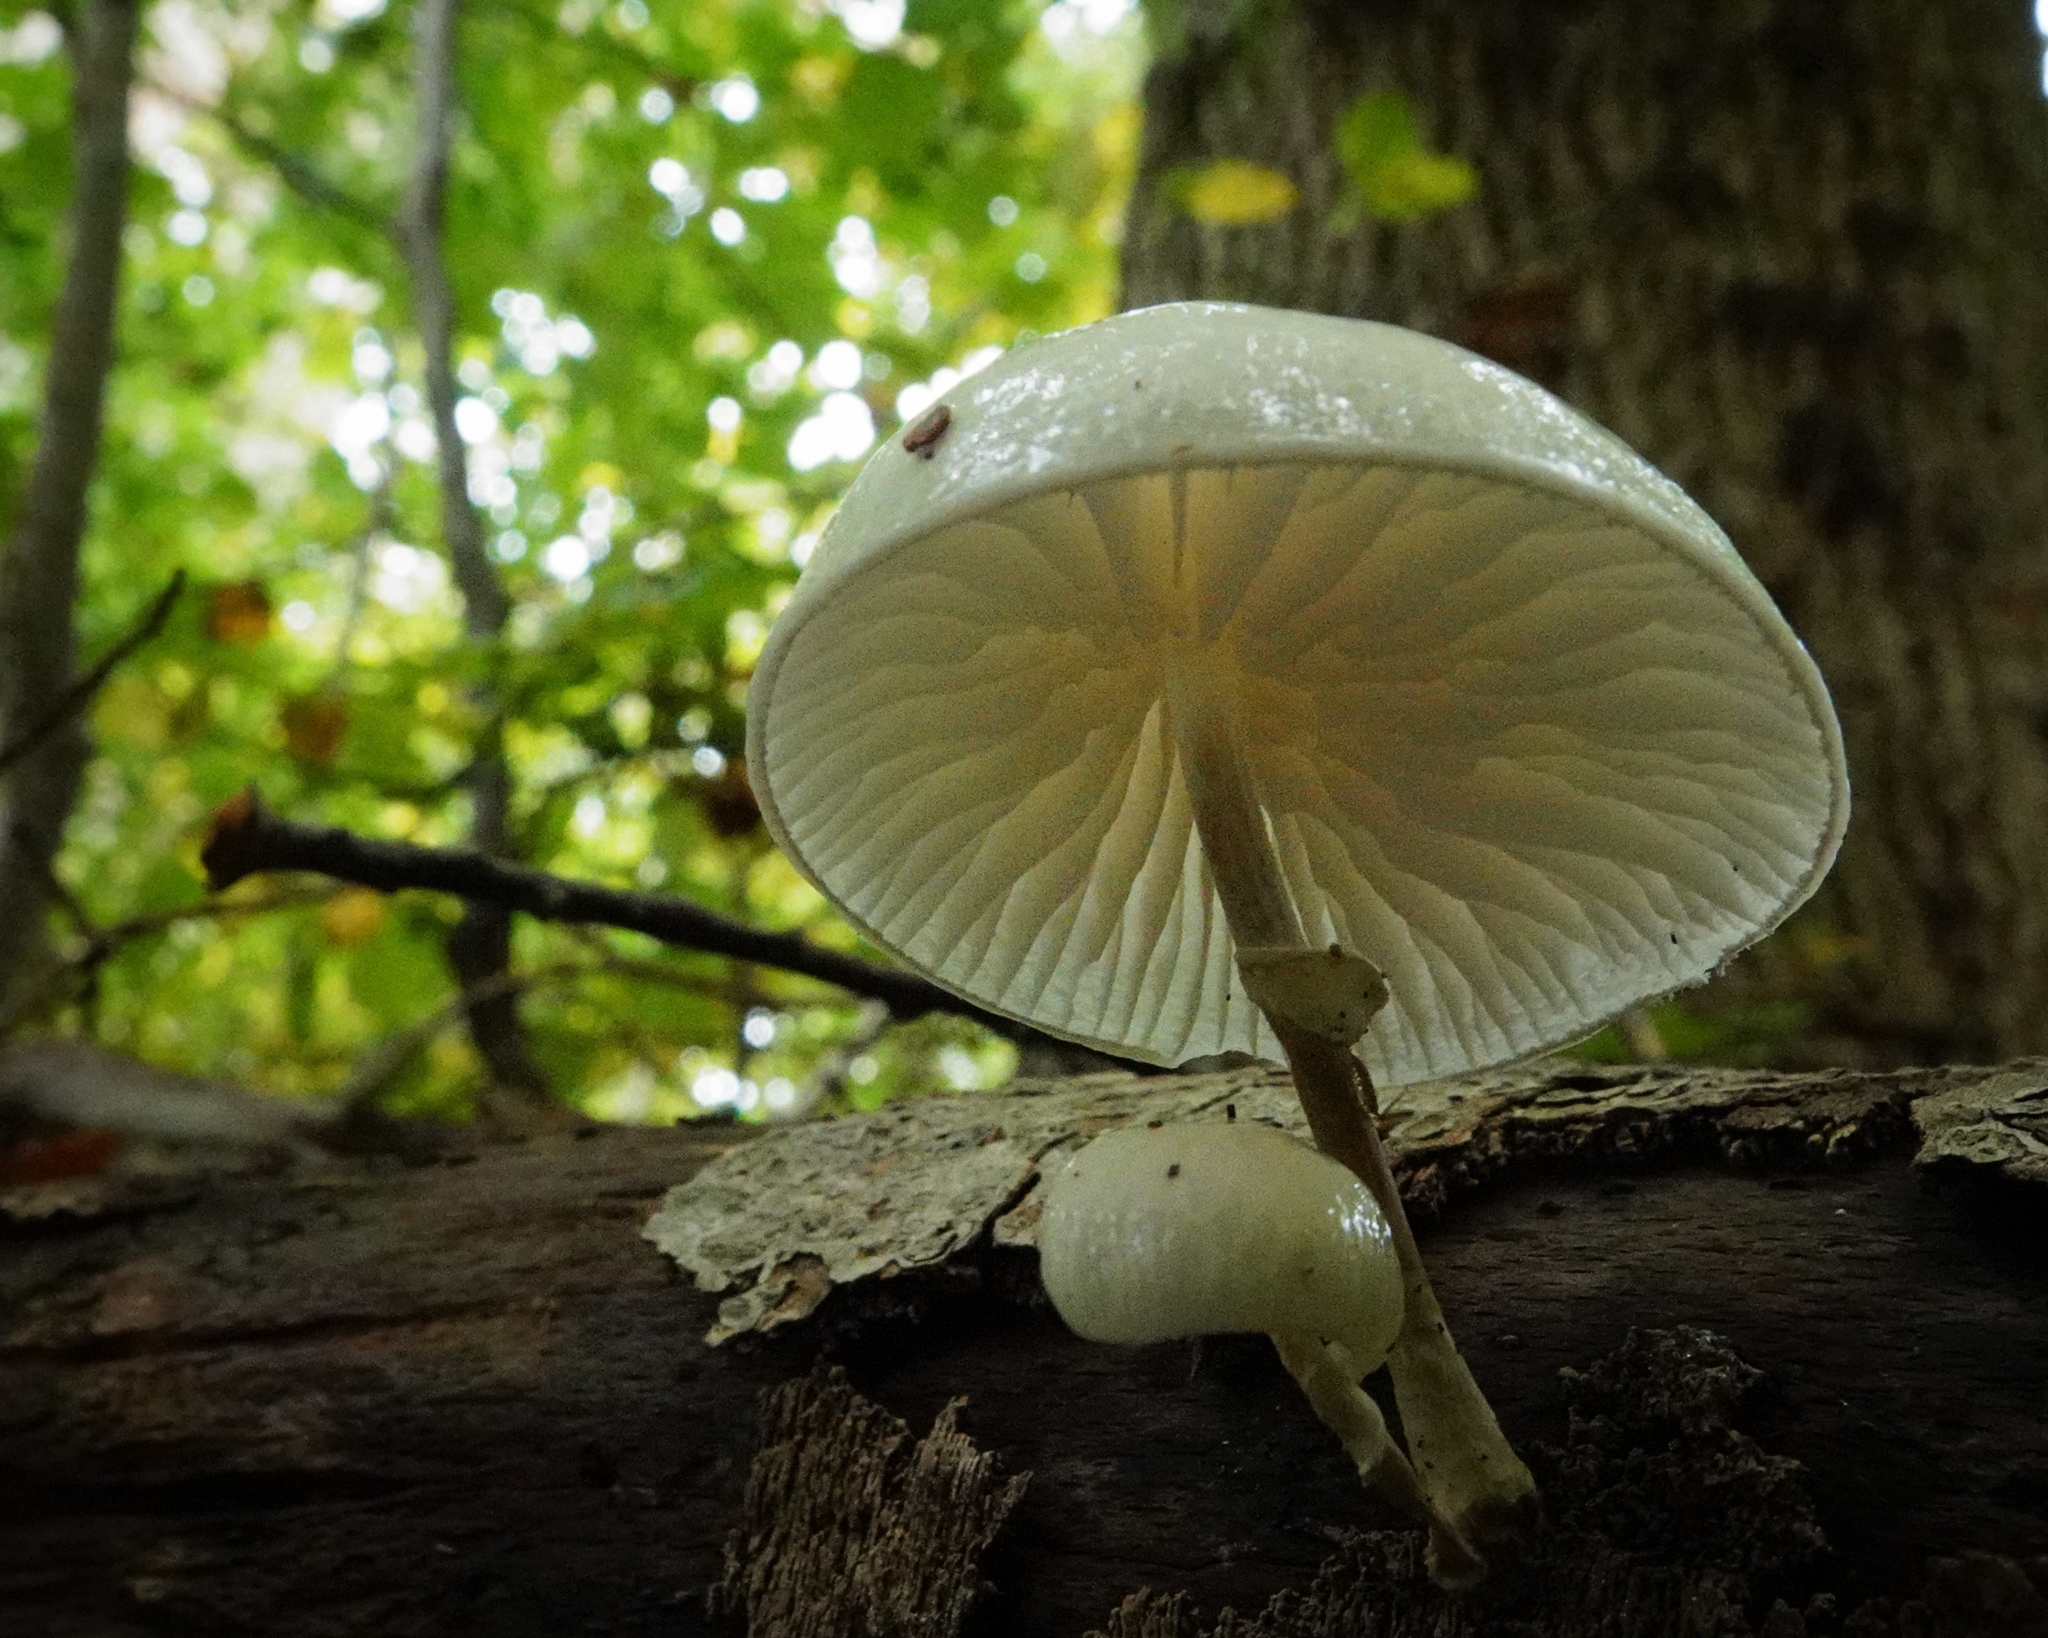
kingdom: Fungi
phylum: Basidiomycota
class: Agaricomycetes
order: Agaricales
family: Physalacriaceae
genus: Mucidula
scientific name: Mucidula mucida
